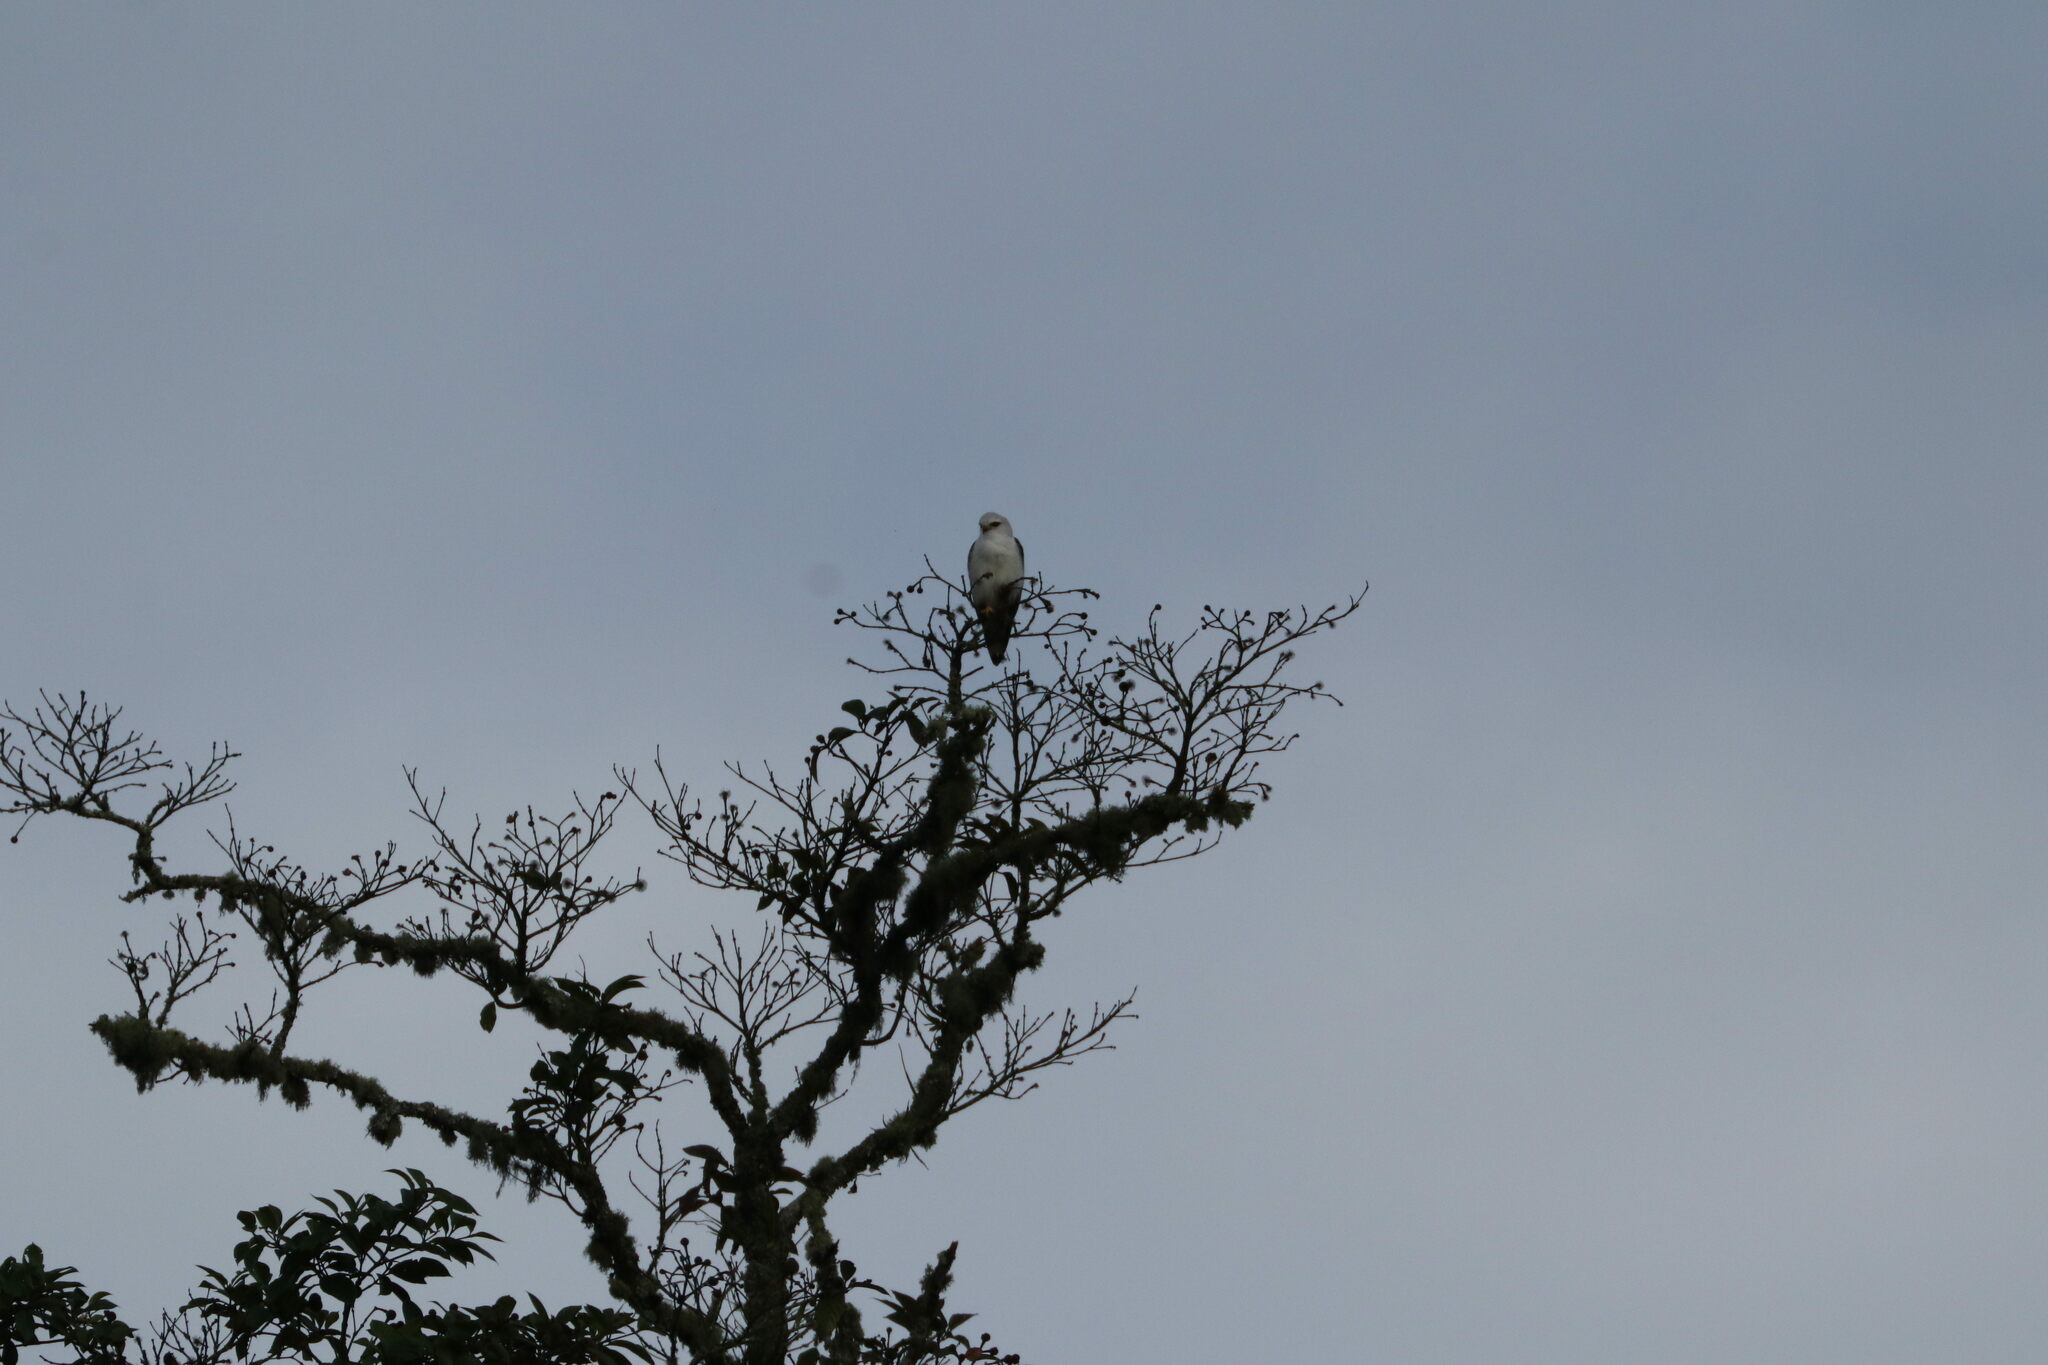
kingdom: Animalia
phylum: Chordata
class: Aves
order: Accipitriformes
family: Accipitridae
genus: Elanus
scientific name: Elanus caeruleus
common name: Black-winged kite
